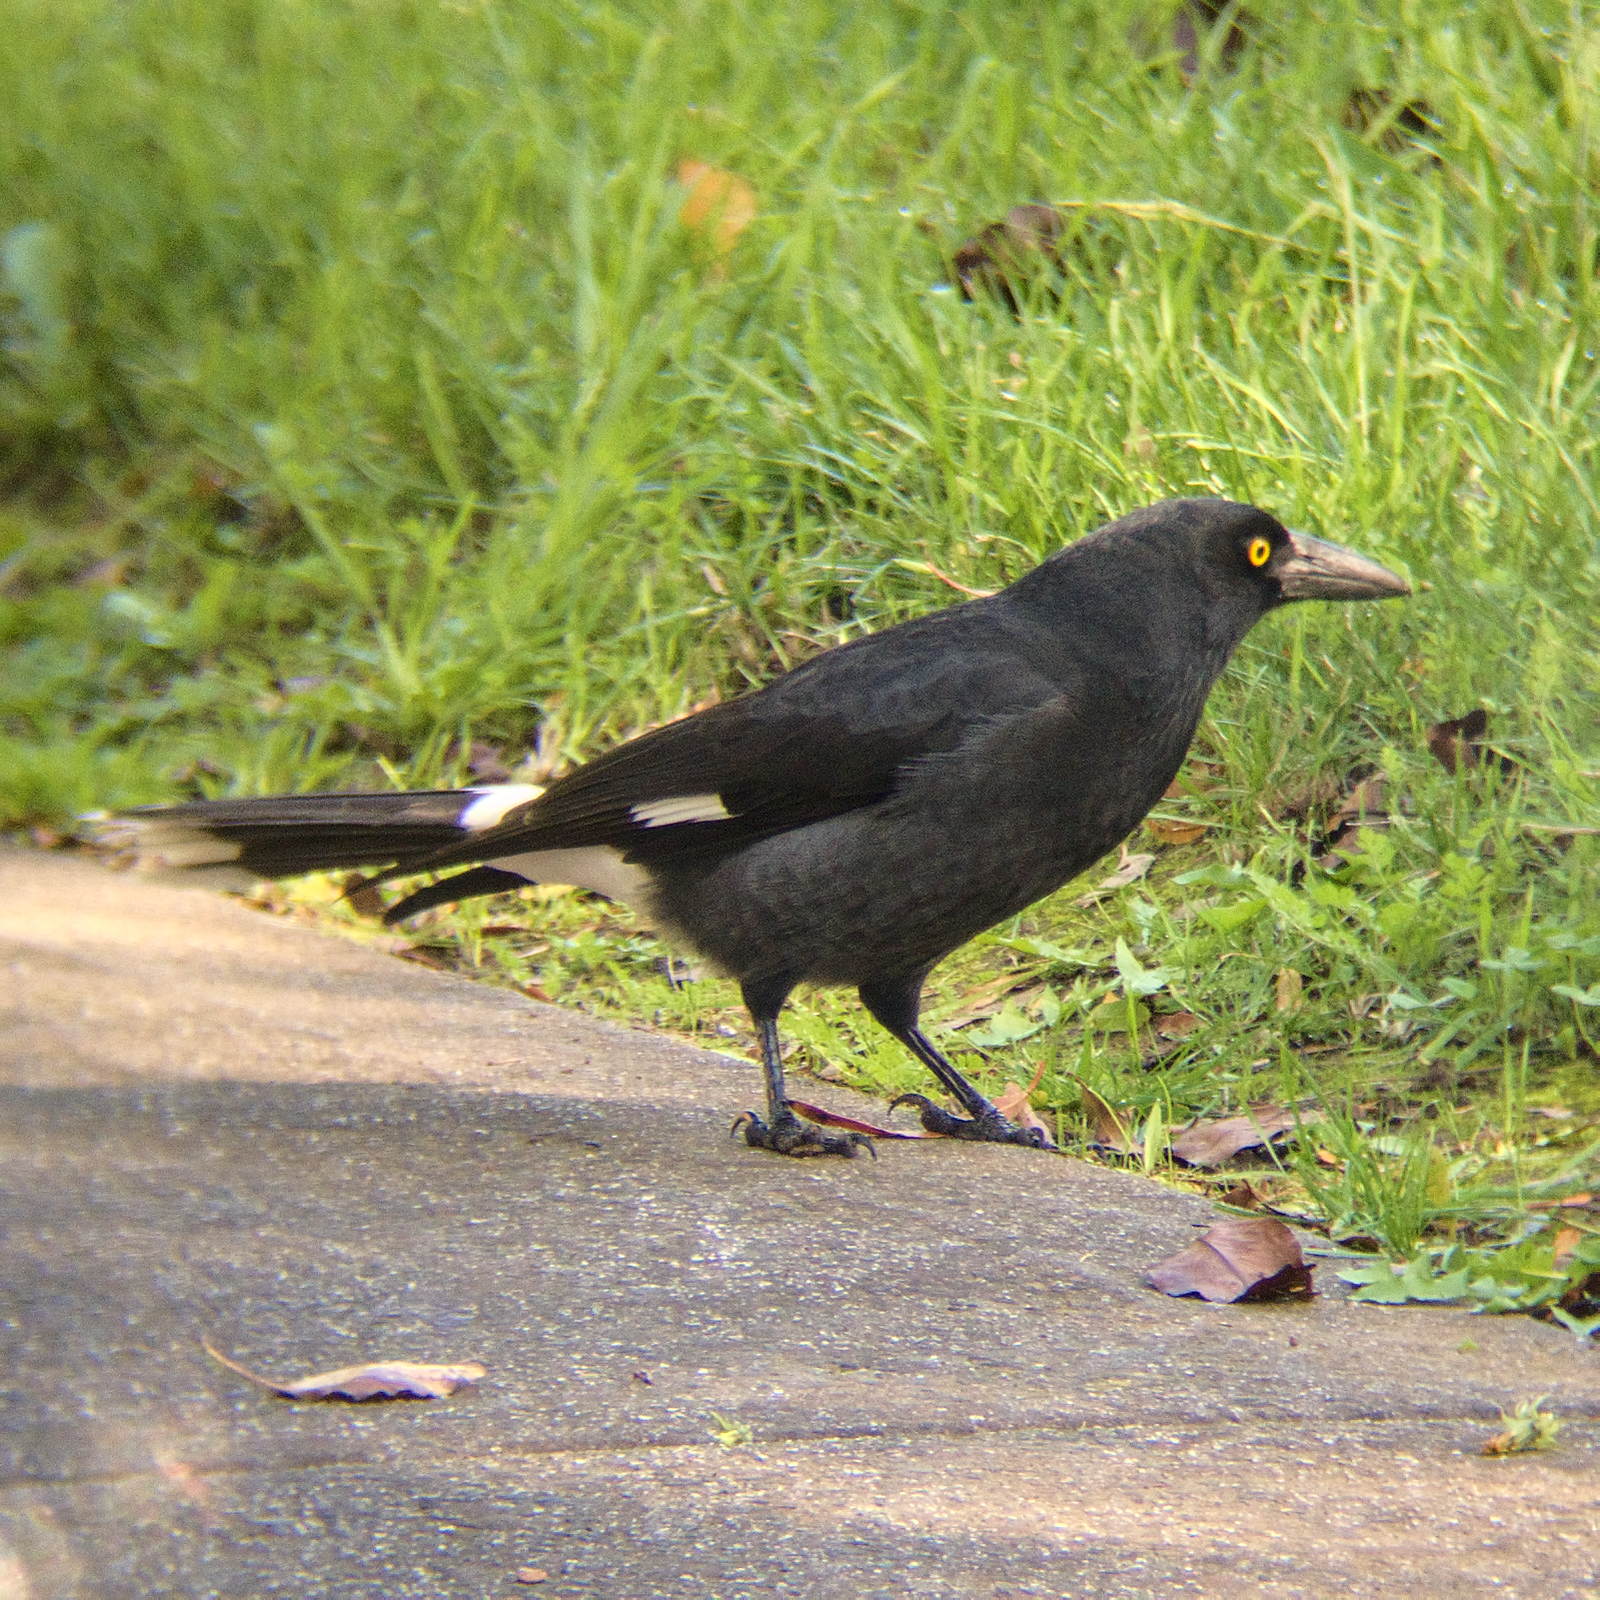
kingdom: Animalia
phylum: Chordata
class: Aves
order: Passeriformes
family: Cracticidae
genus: Strepera
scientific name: Strepera graculina
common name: Pied currawong
